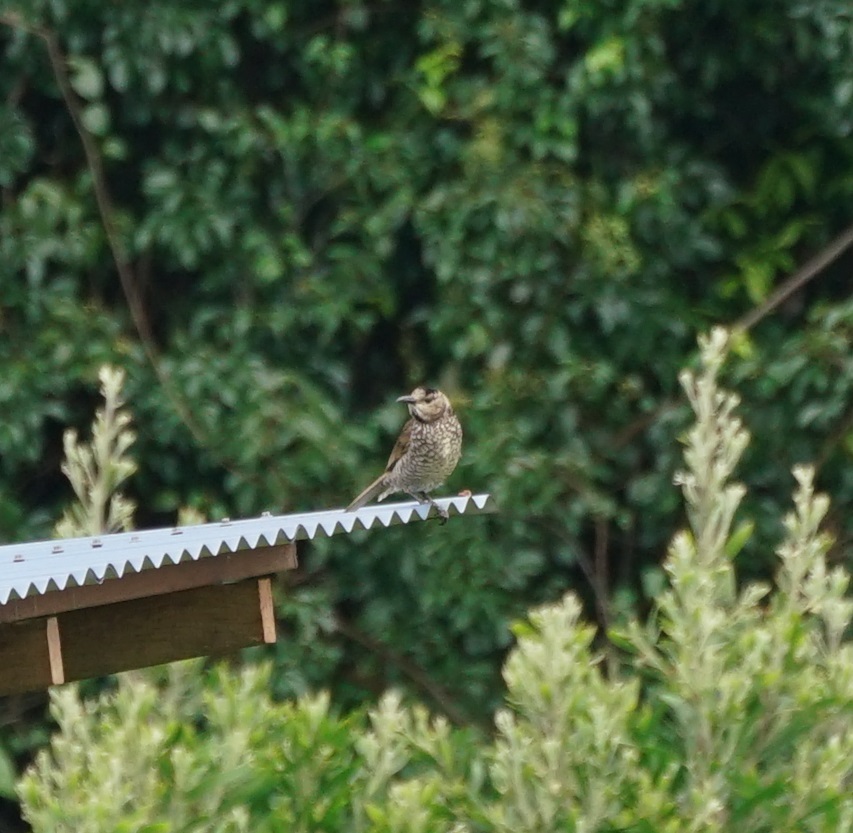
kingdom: Animalia
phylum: Chordata
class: Aves
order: Passeriformes
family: Ptilonorhynchidae
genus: Sericulus
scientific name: Sericulus chrysocephalus
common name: Regent bowerbird
